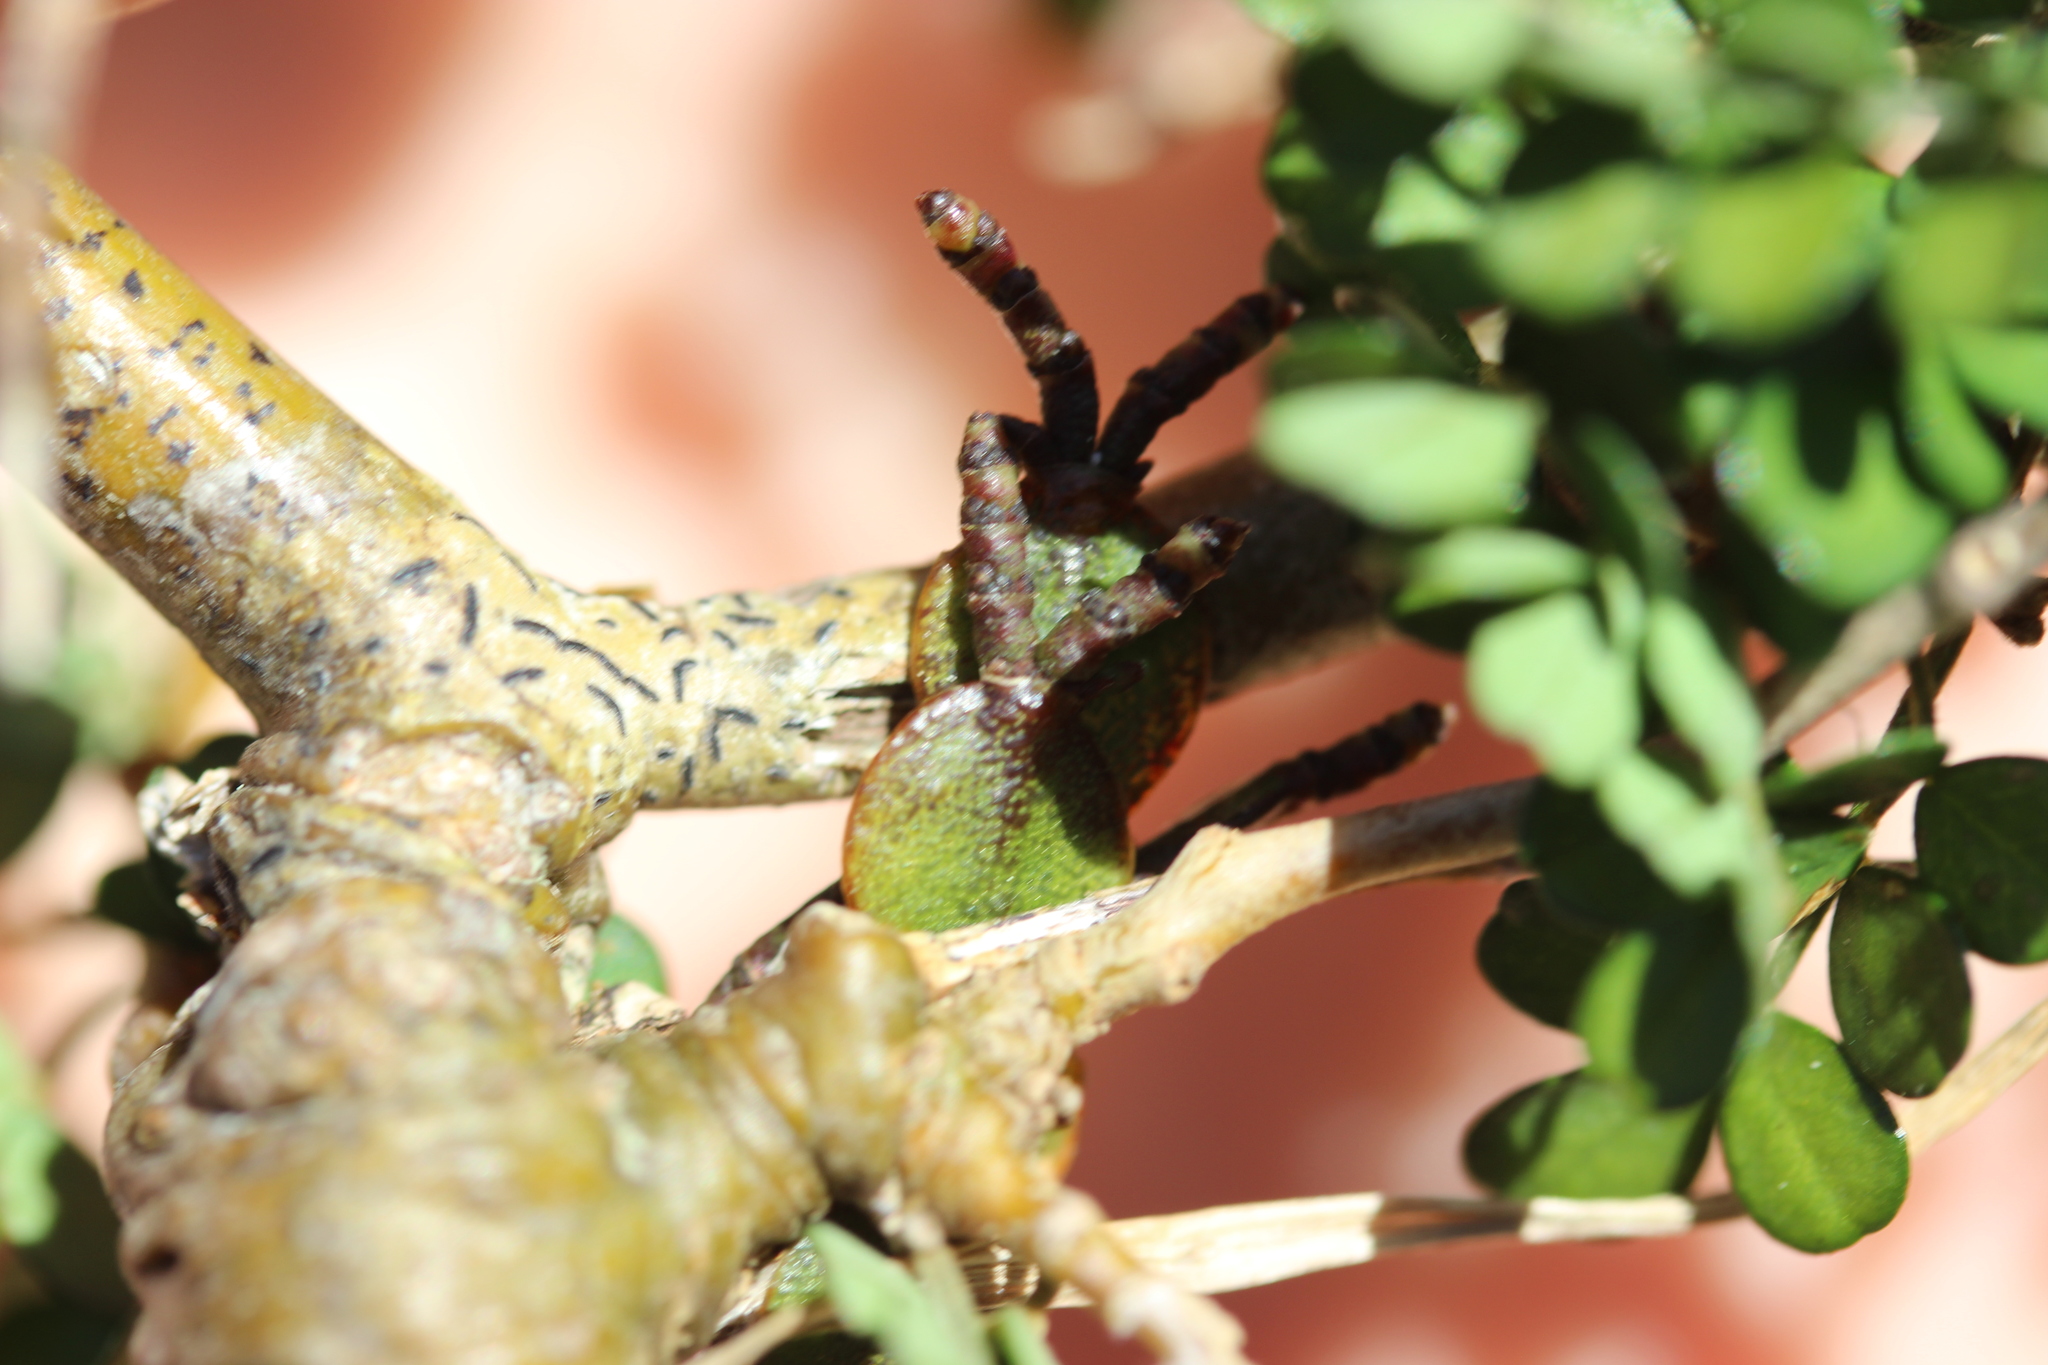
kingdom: Plantae
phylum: Tracheophyta
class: Magnoliopsida
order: Santalales
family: Viscaceae
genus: Korthalsella
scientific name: Korthalsella lindsayi
